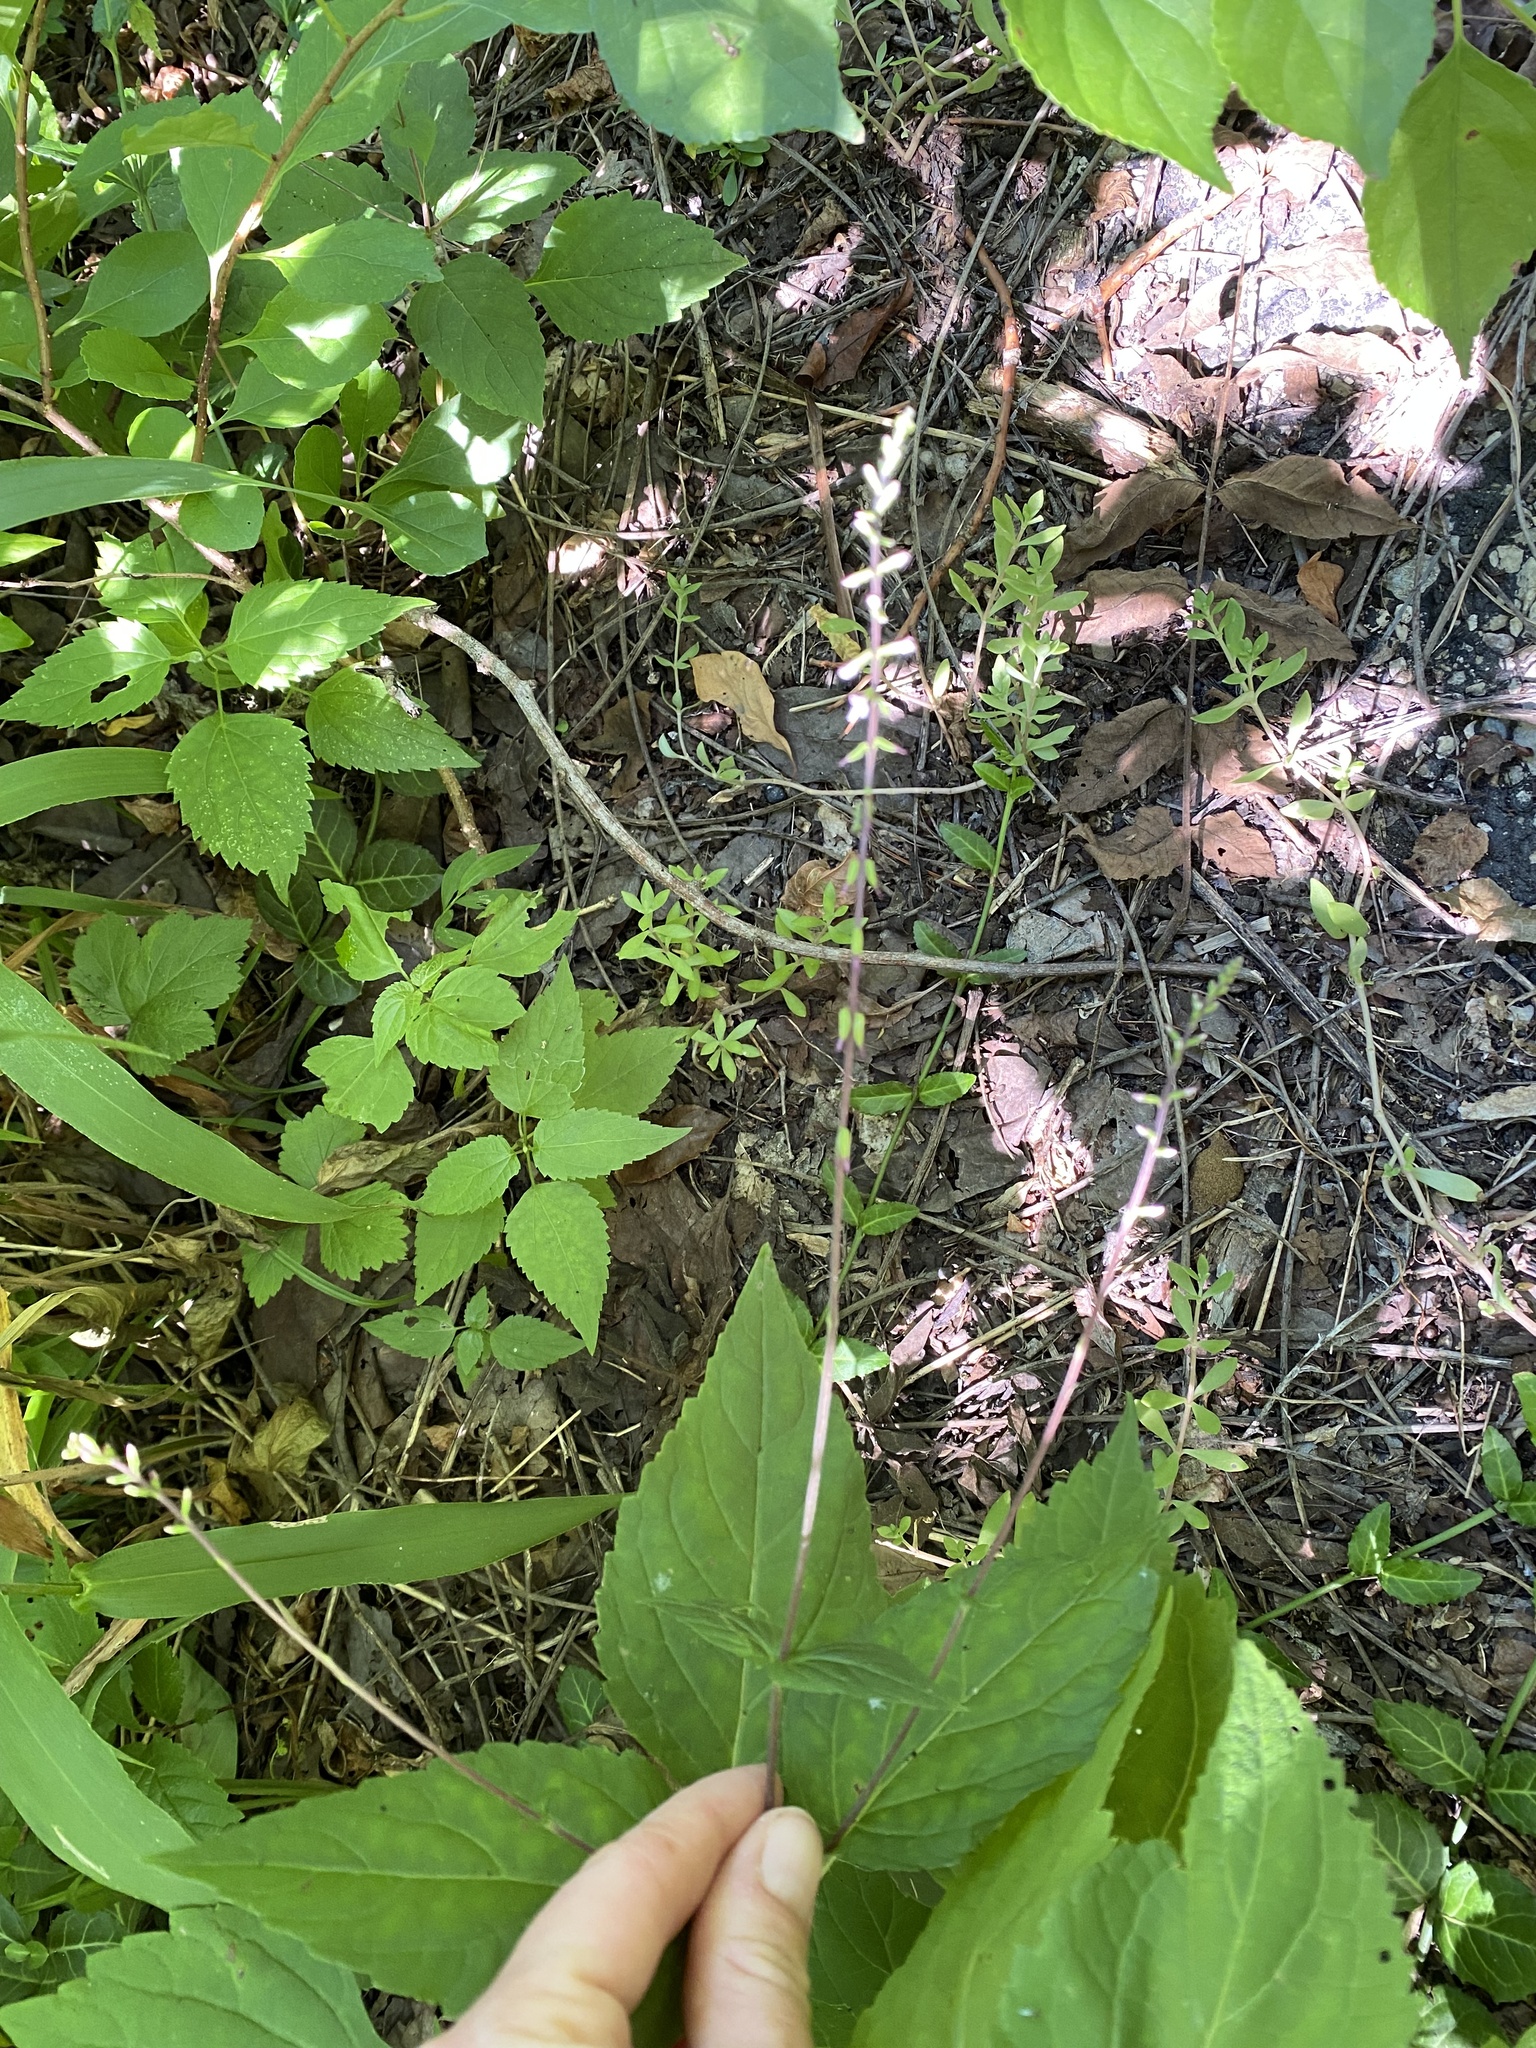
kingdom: Plantae
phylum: Tracheophyta
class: Magnoliopsida
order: Lamiales
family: Phrymaceae
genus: Phryma
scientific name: Phryma leptostachya
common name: American lopseed
